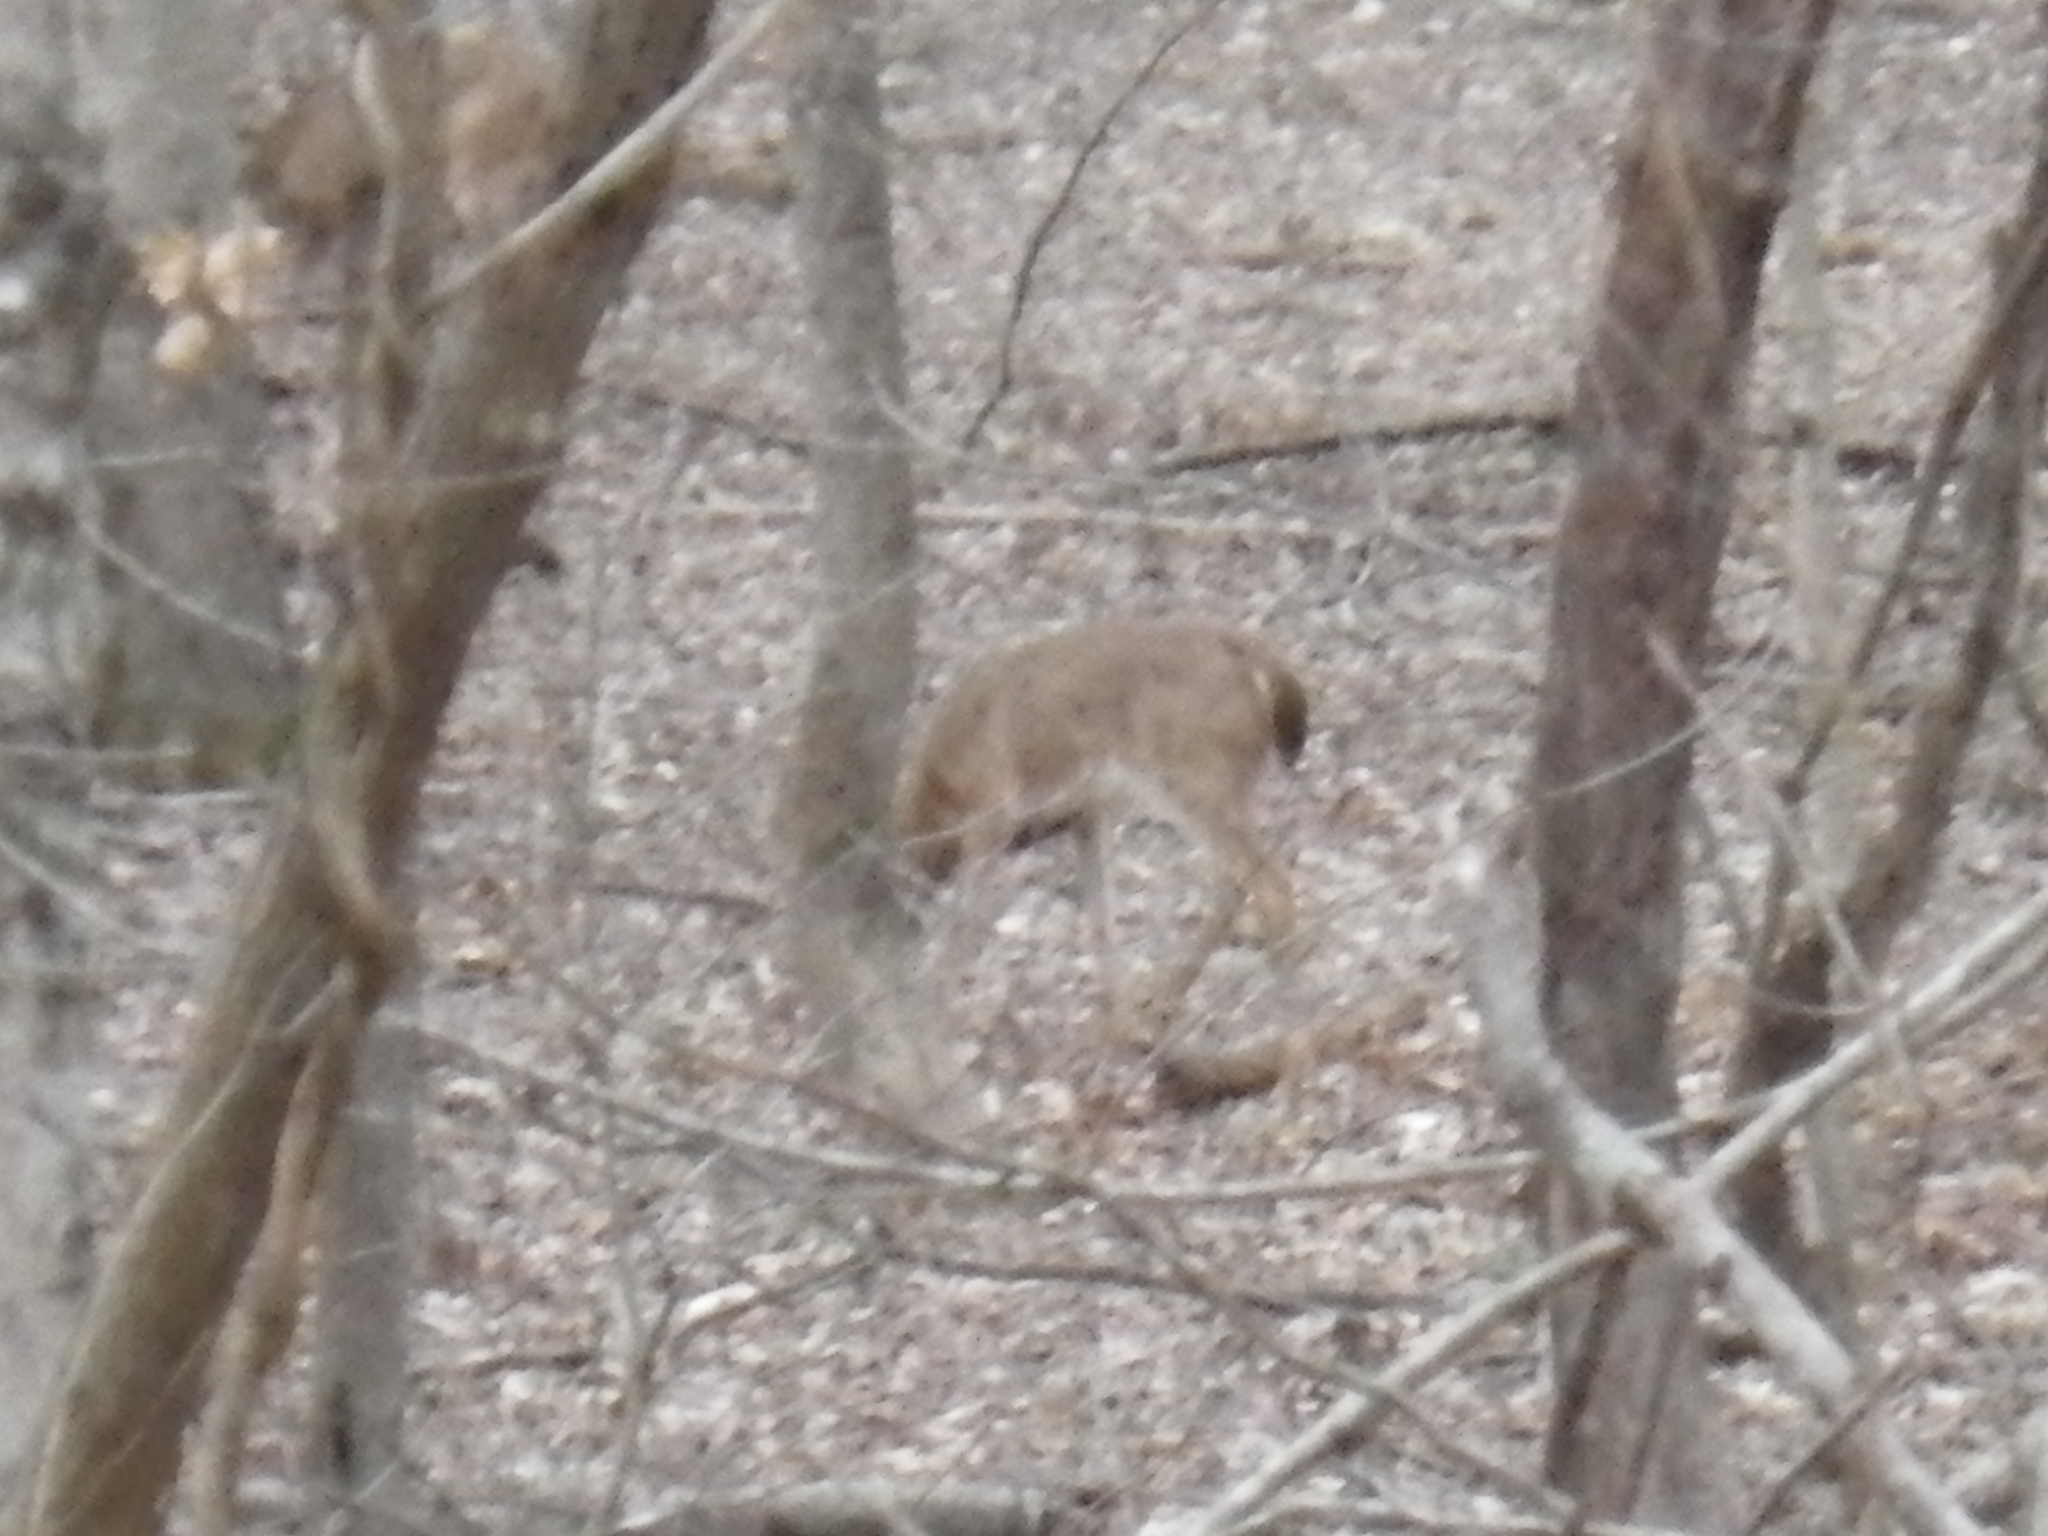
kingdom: Animalia
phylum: Chordata
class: Mammalia
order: Artiodactyla
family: Cervidae
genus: Odocoileus
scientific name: Odocoileus virginianus
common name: White-tailed deer
